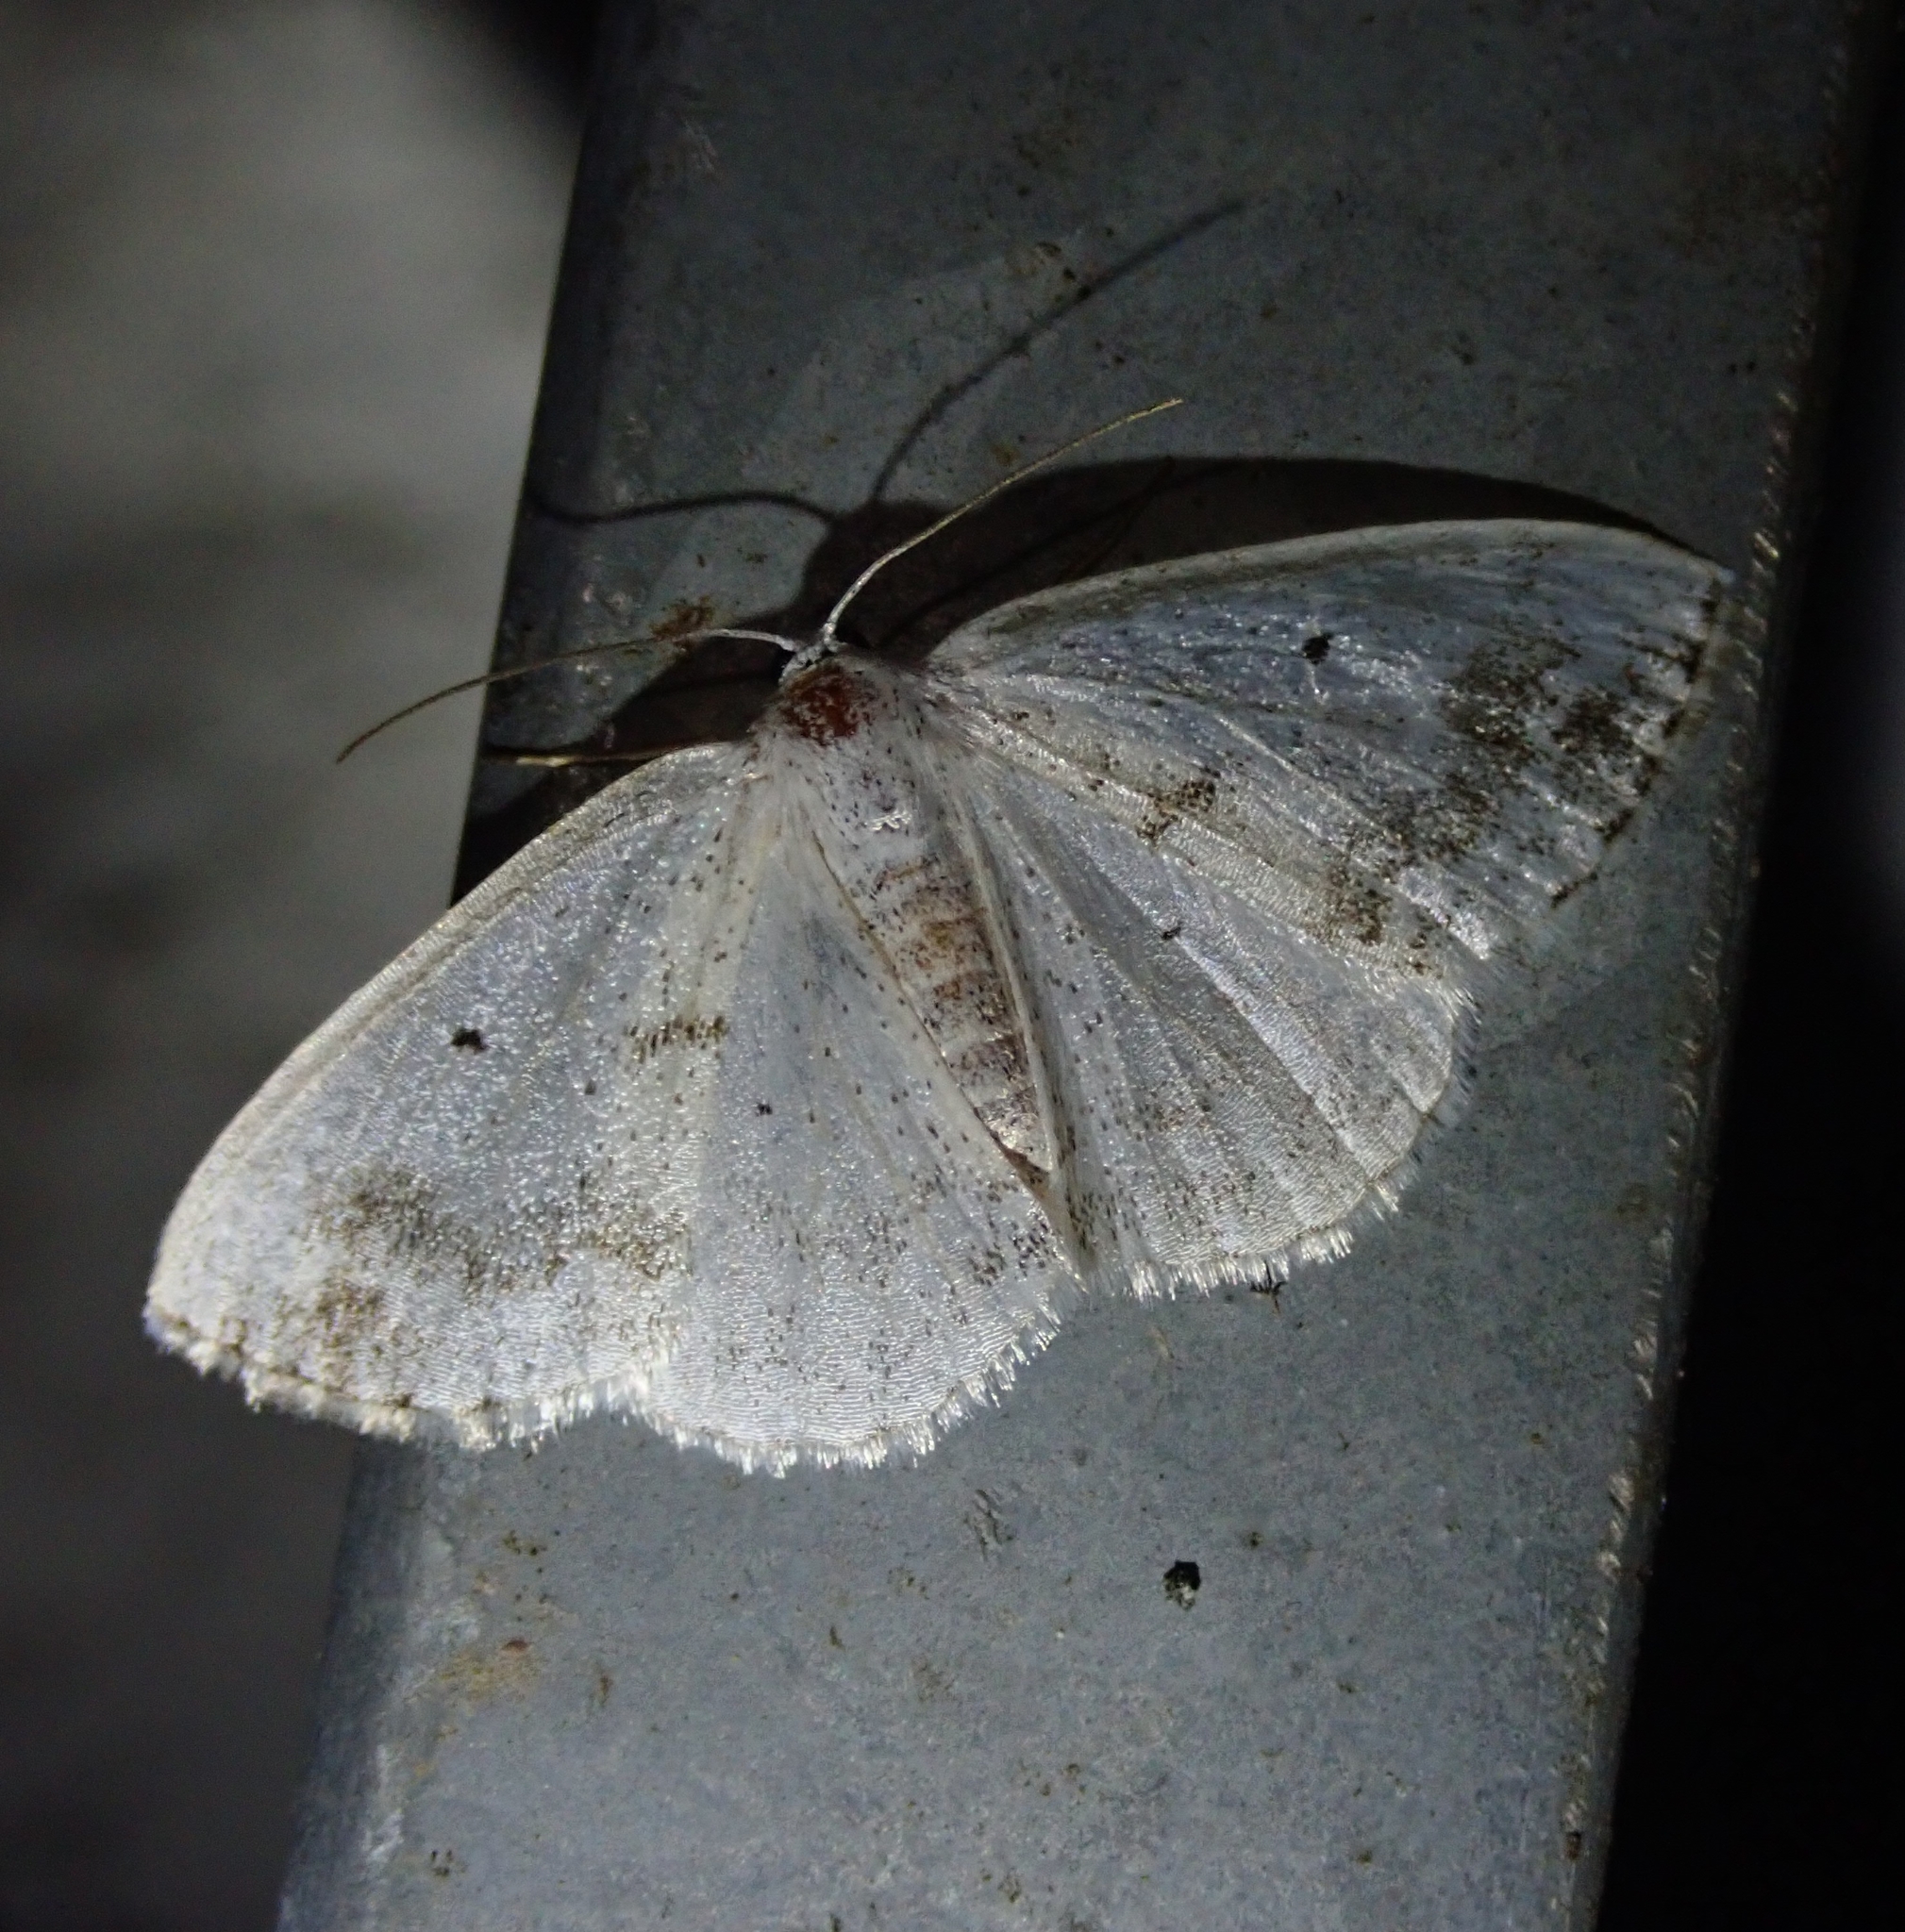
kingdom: Animalia
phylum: Arthropoda
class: Insecta
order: Lepidoptera
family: Geometridae
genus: Lomographa
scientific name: Lomographa temerata
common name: Clouded silver
